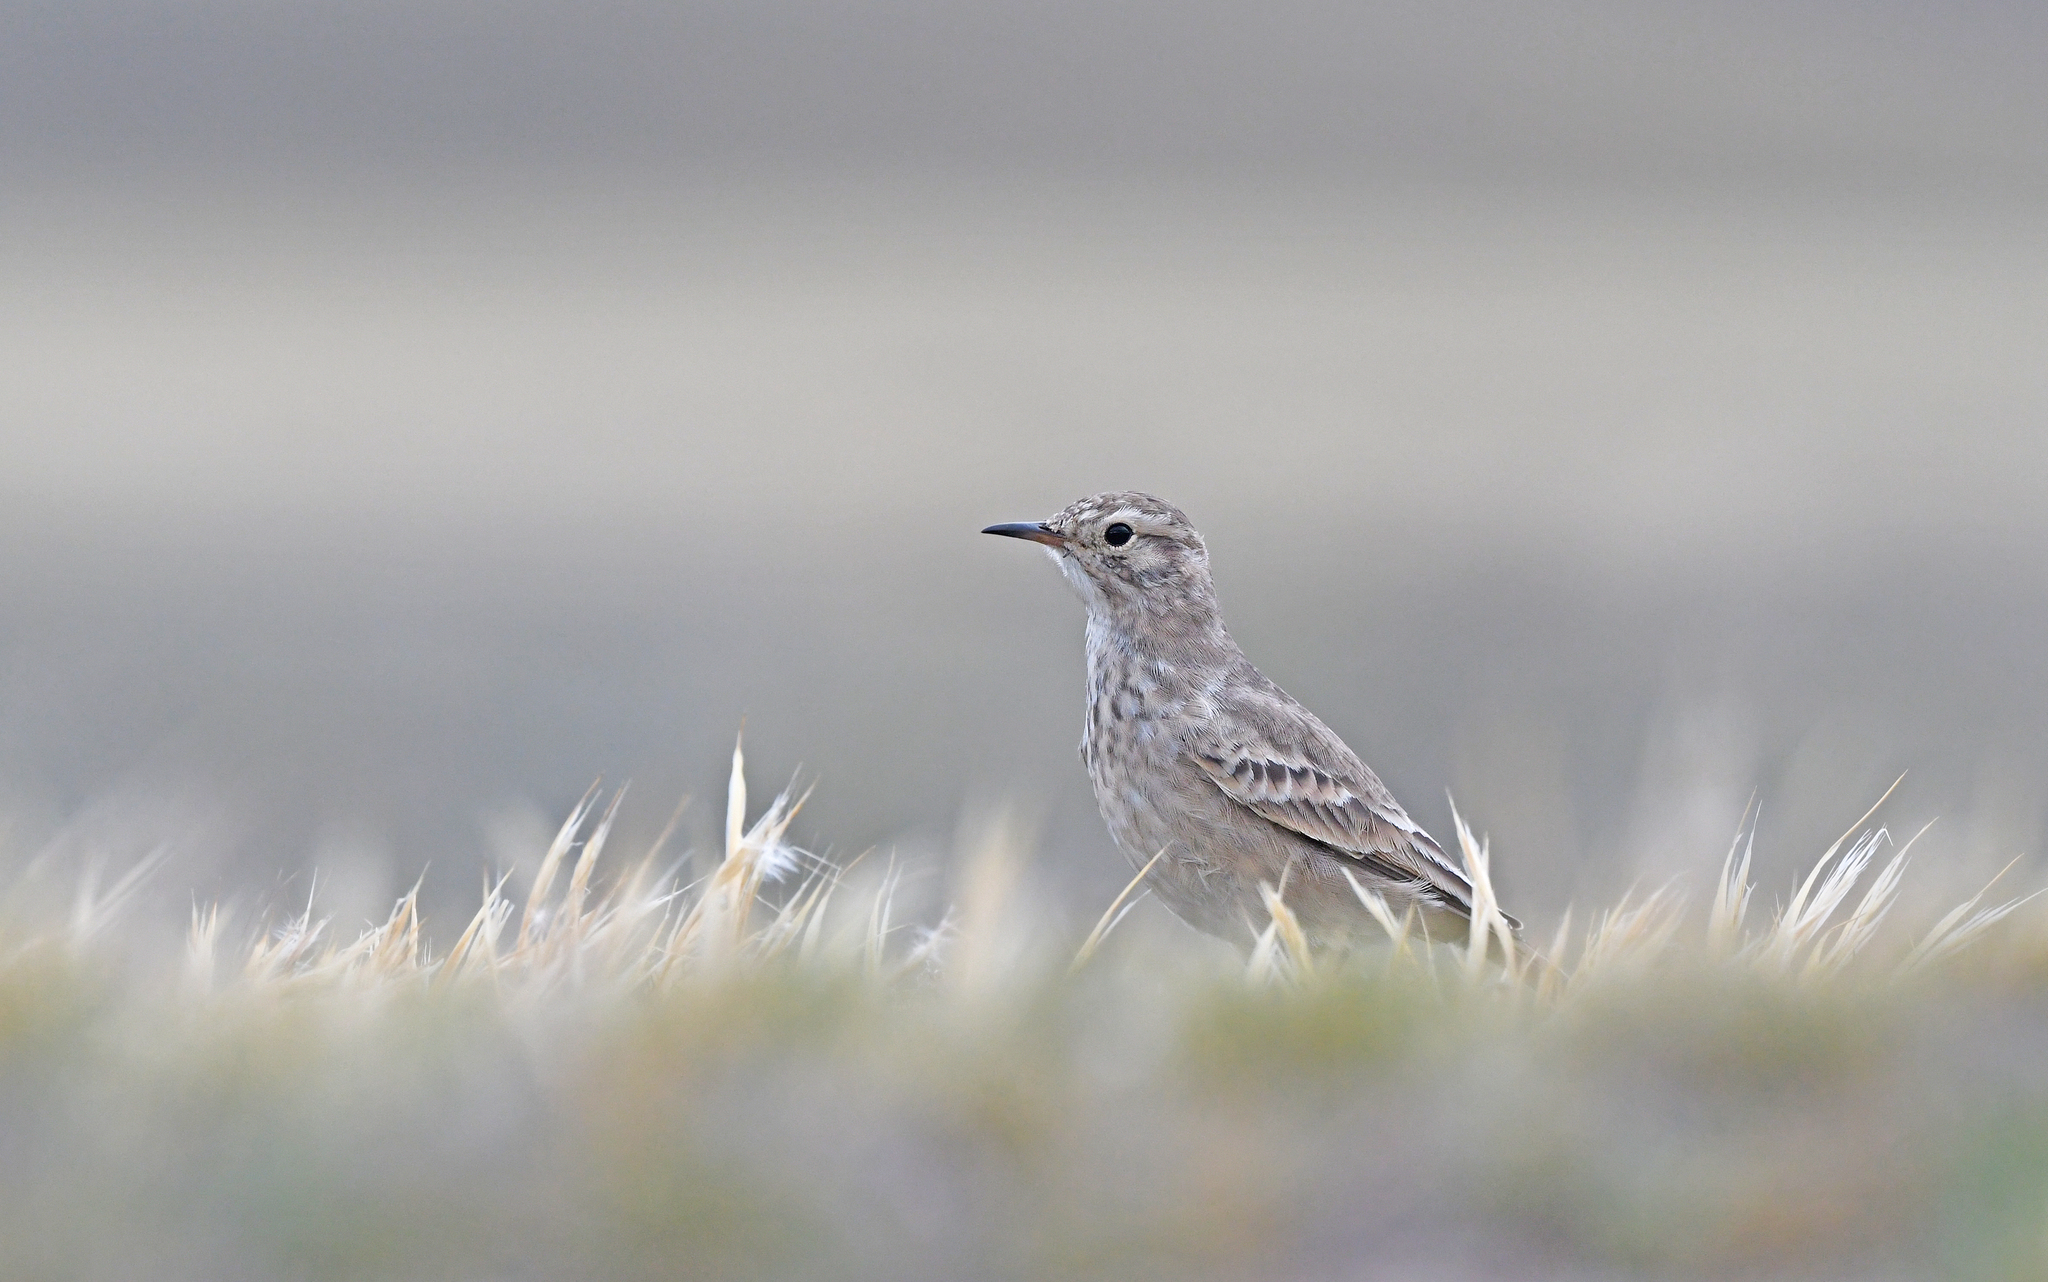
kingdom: Animalia
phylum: Chordata
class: Aves
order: Passeriformes
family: Furnariidae
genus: Geositta
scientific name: Geositta cunicularia
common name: Common miner
